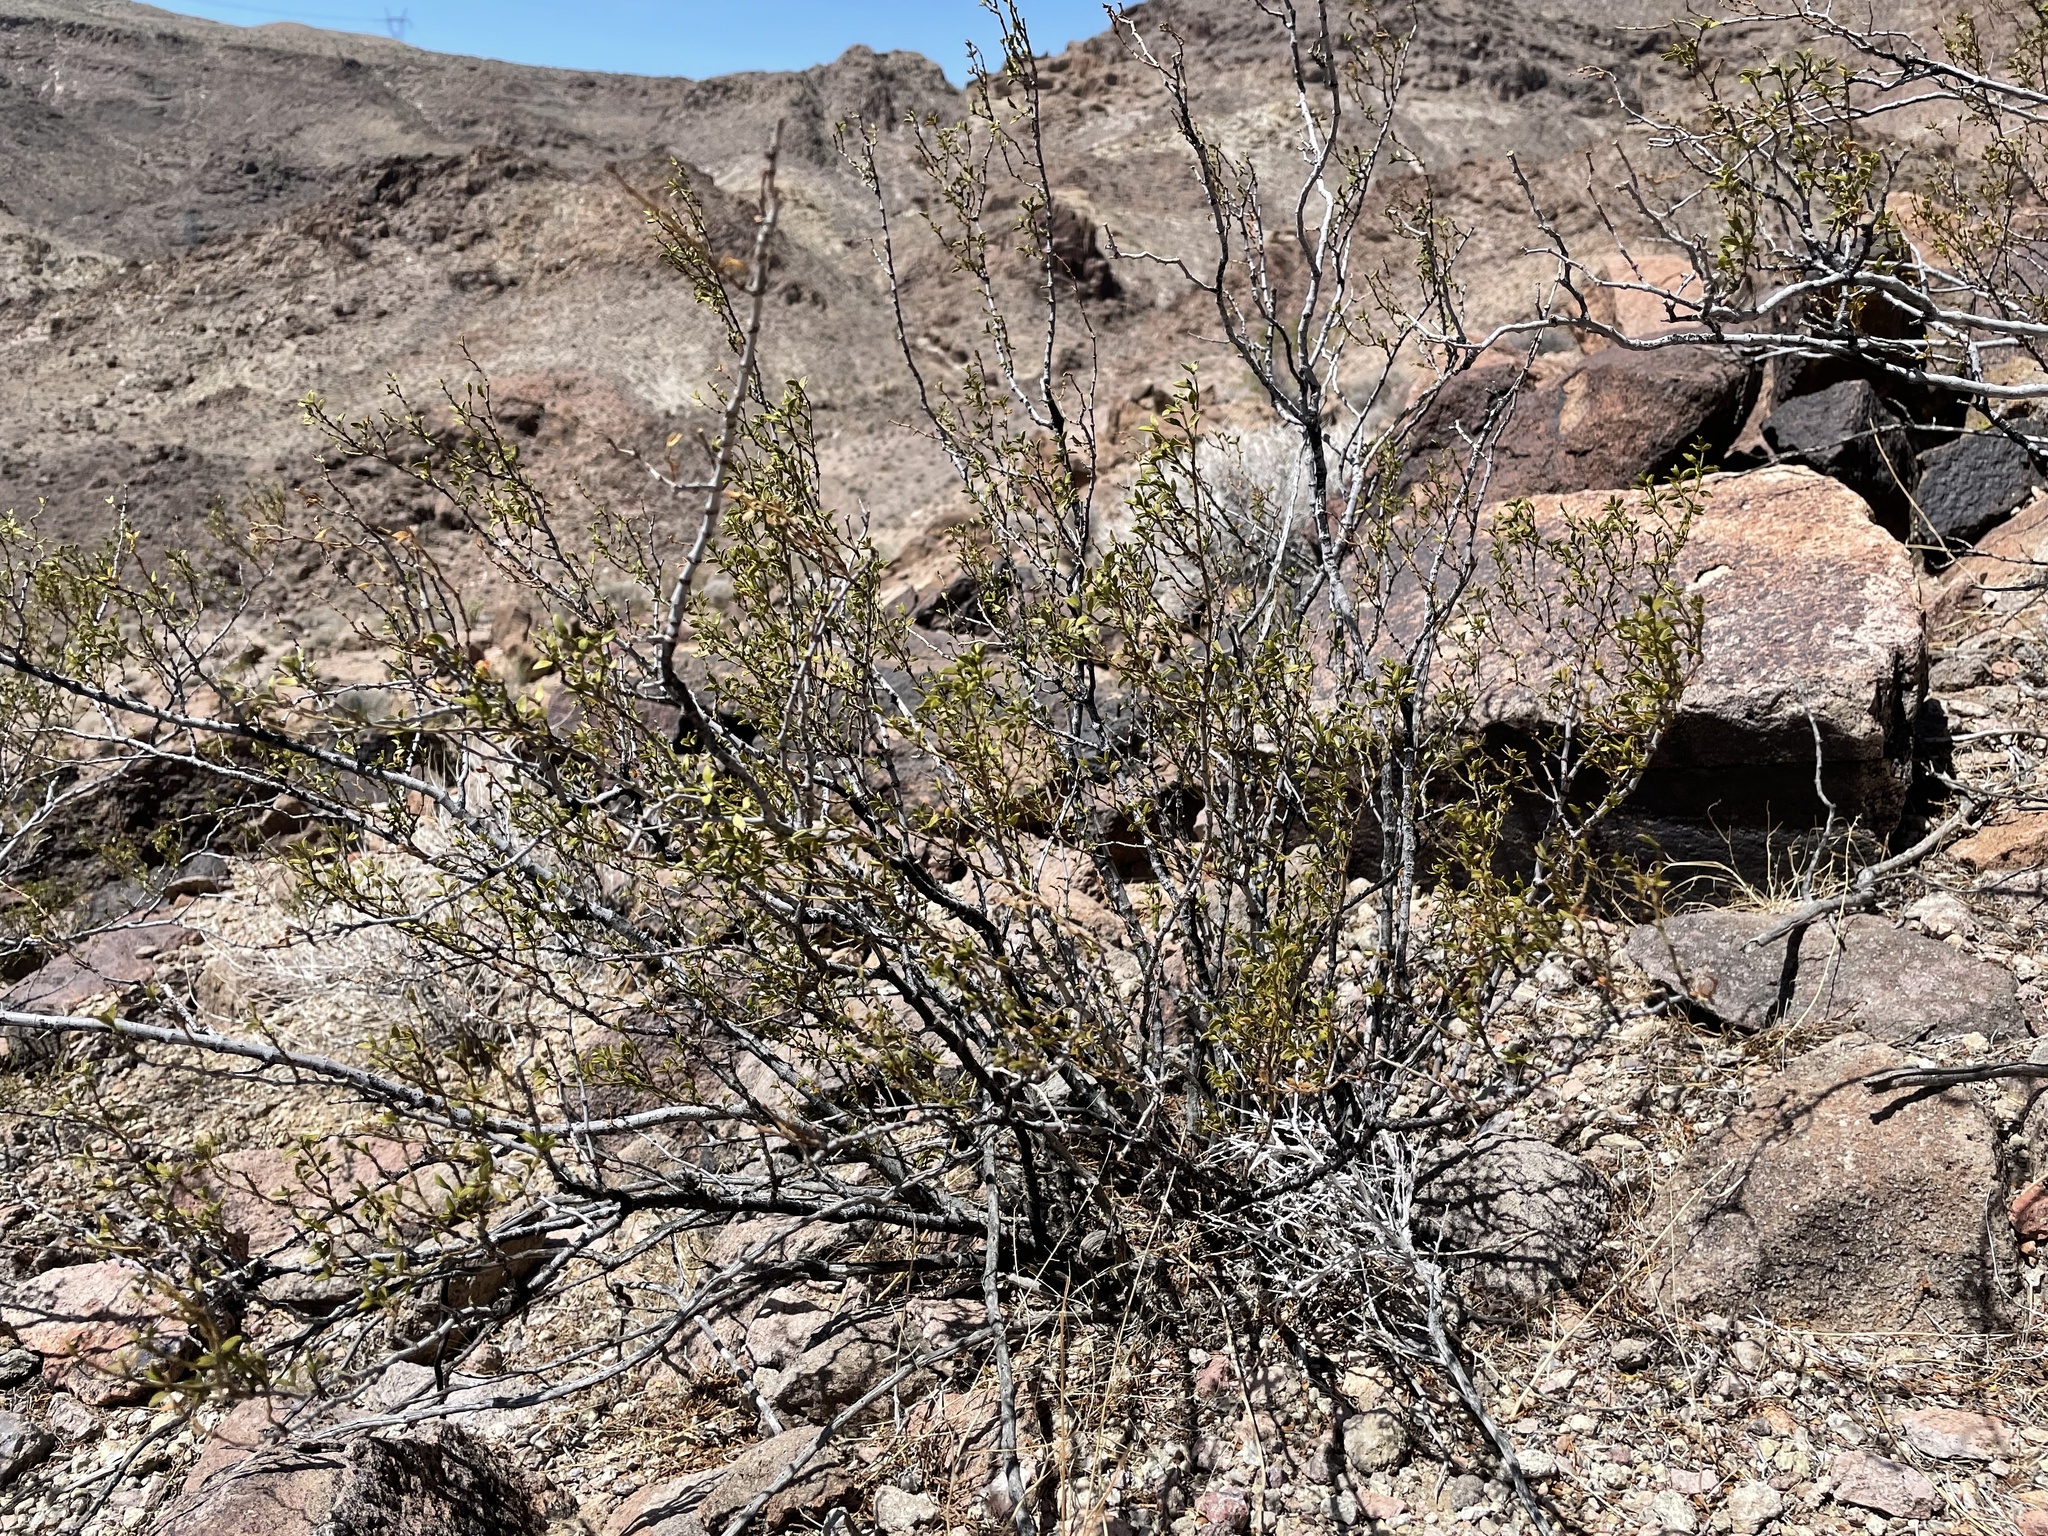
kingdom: Plantae
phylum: Tracheophyta
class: Magnoliopsida
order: Zygophyllales
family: Zygophyllaceae
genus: Larrea
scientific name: Larrea tridentata
